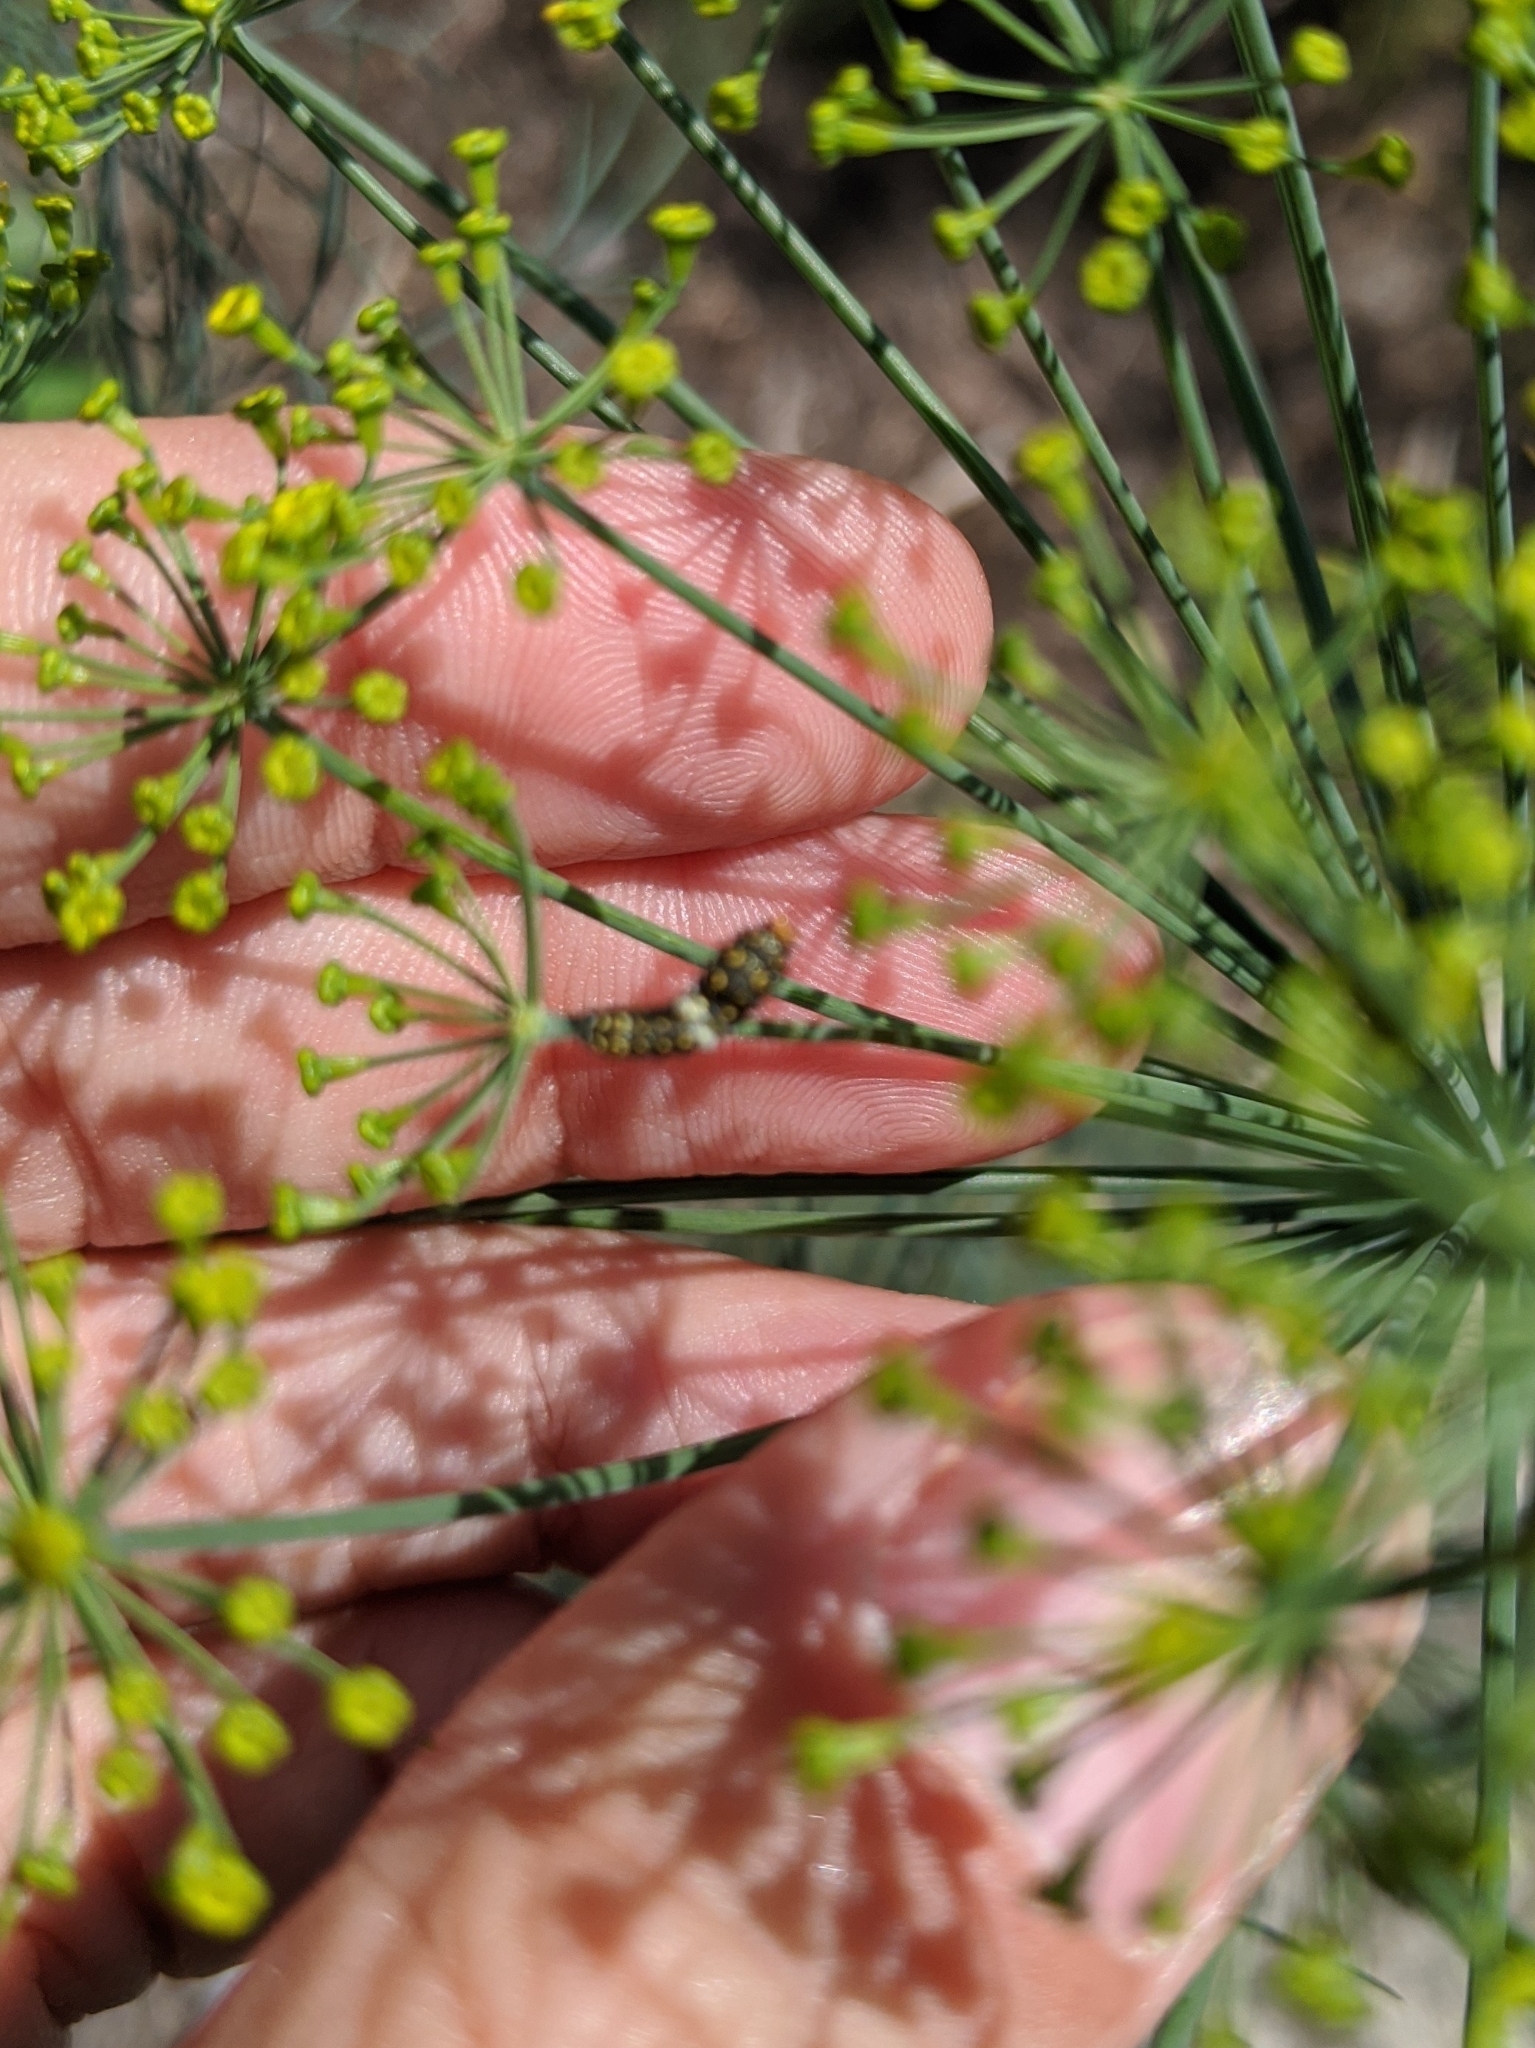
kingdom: Animalia
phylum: Arthropoda
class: Insecta
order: Lepidoptera
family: Papilionidae
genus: Papilio
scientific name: Papilio polyxenes
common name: Black swallowtail
